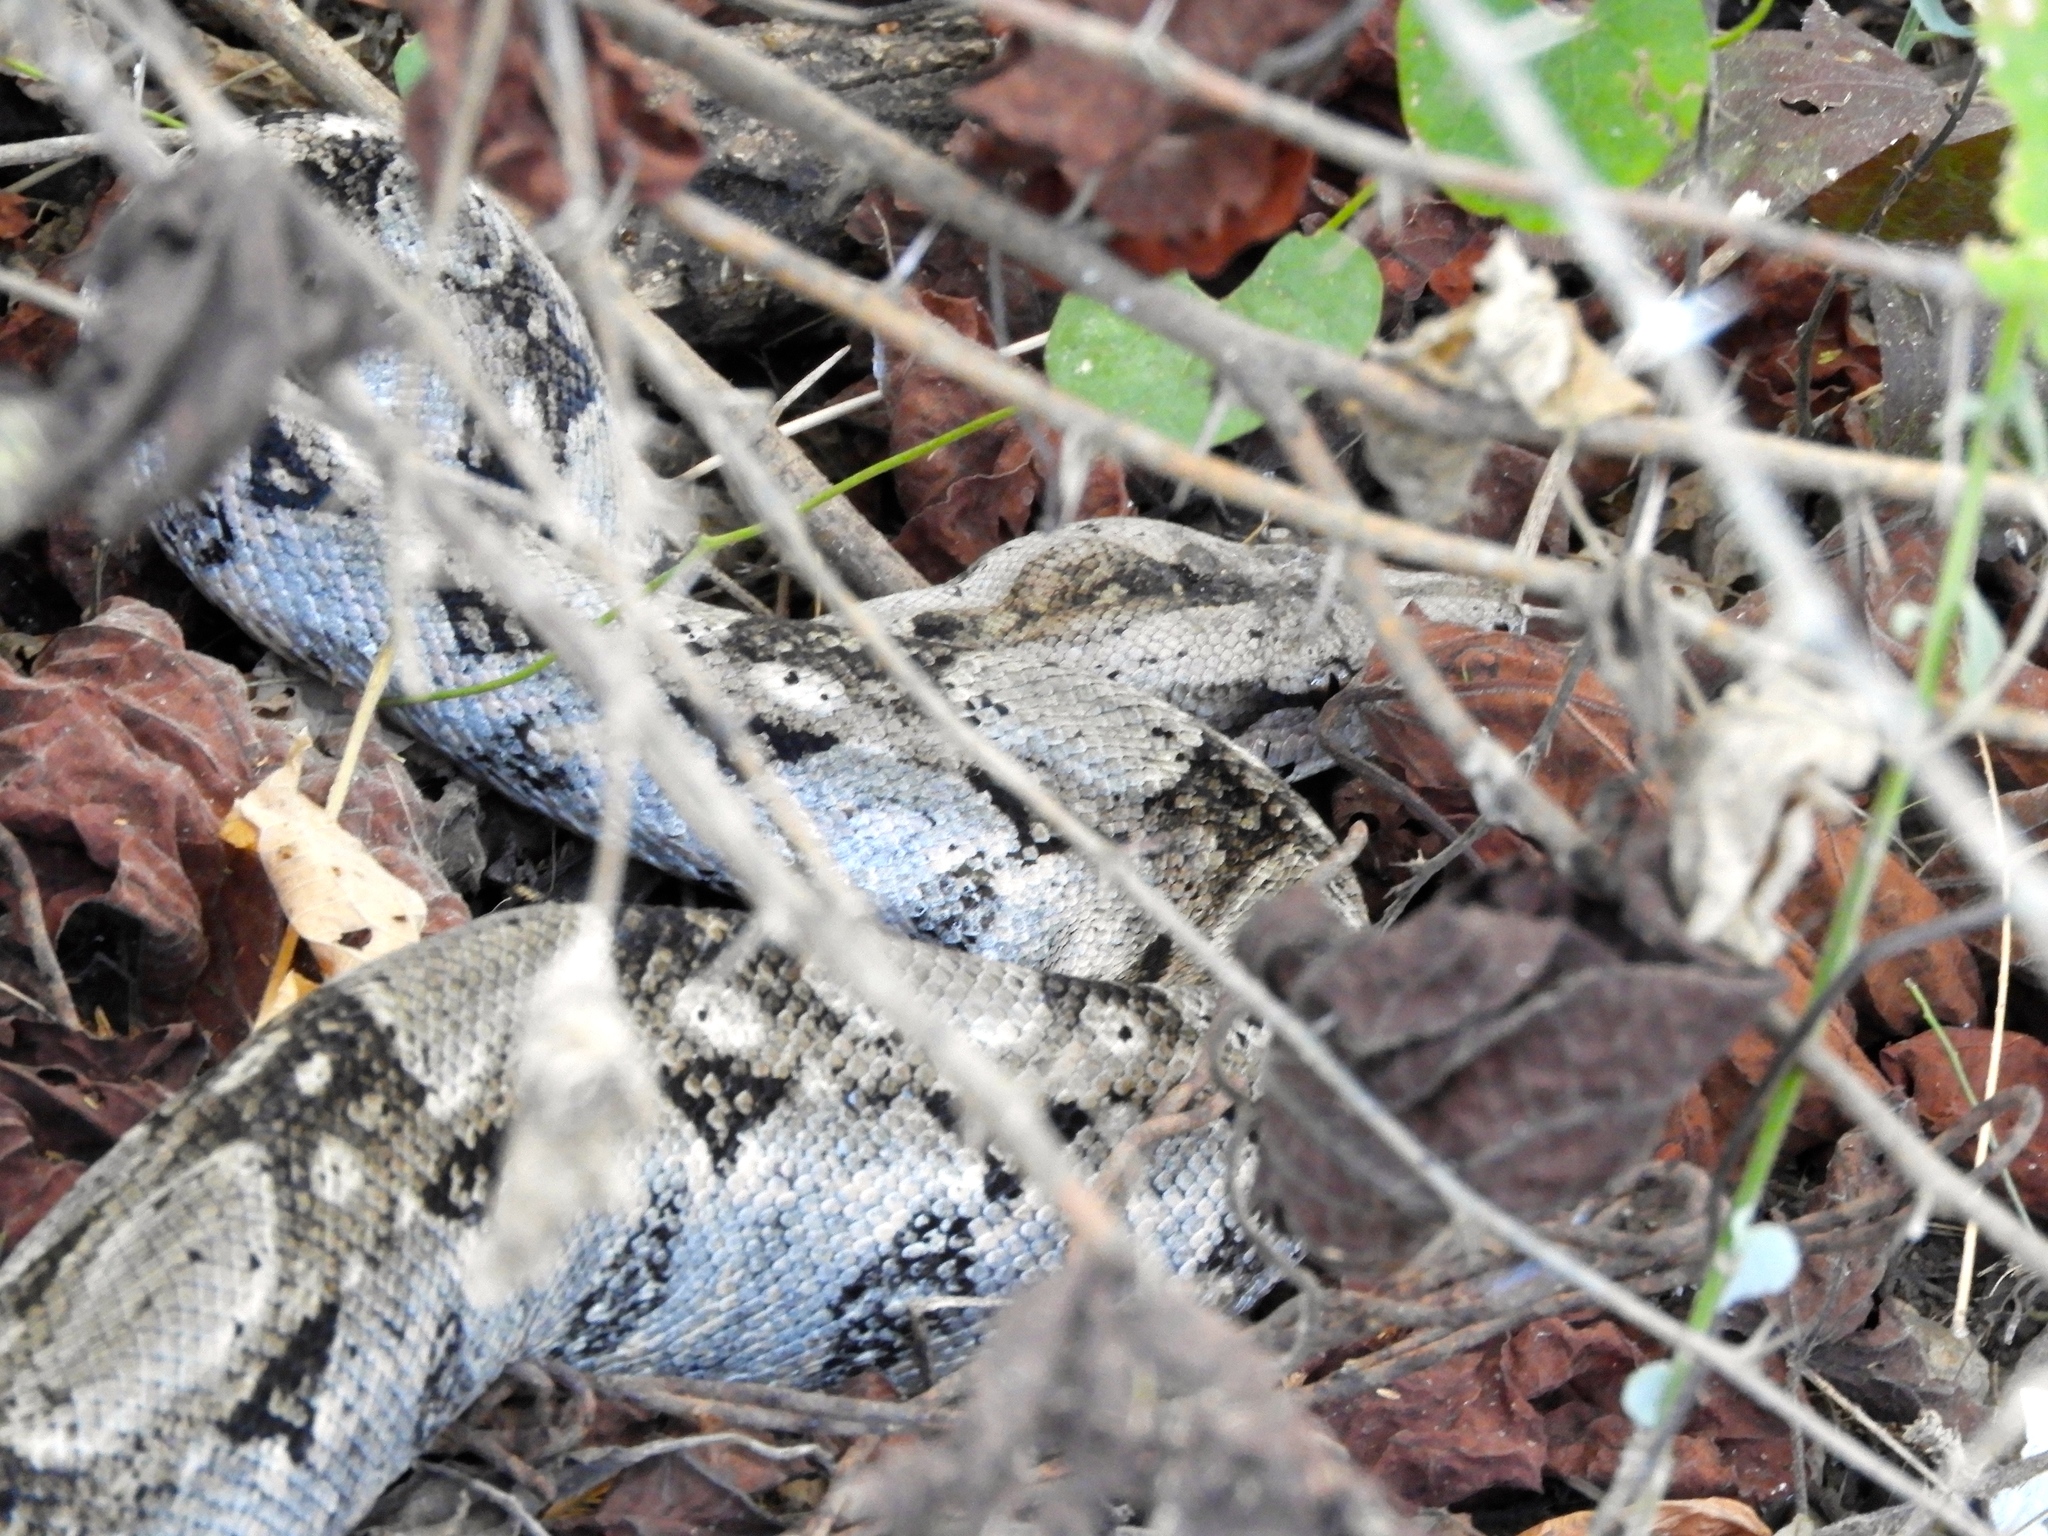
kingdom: Animalia
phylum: Chordata
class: Squamata
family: Boidae
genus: Boa
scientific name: Boa
